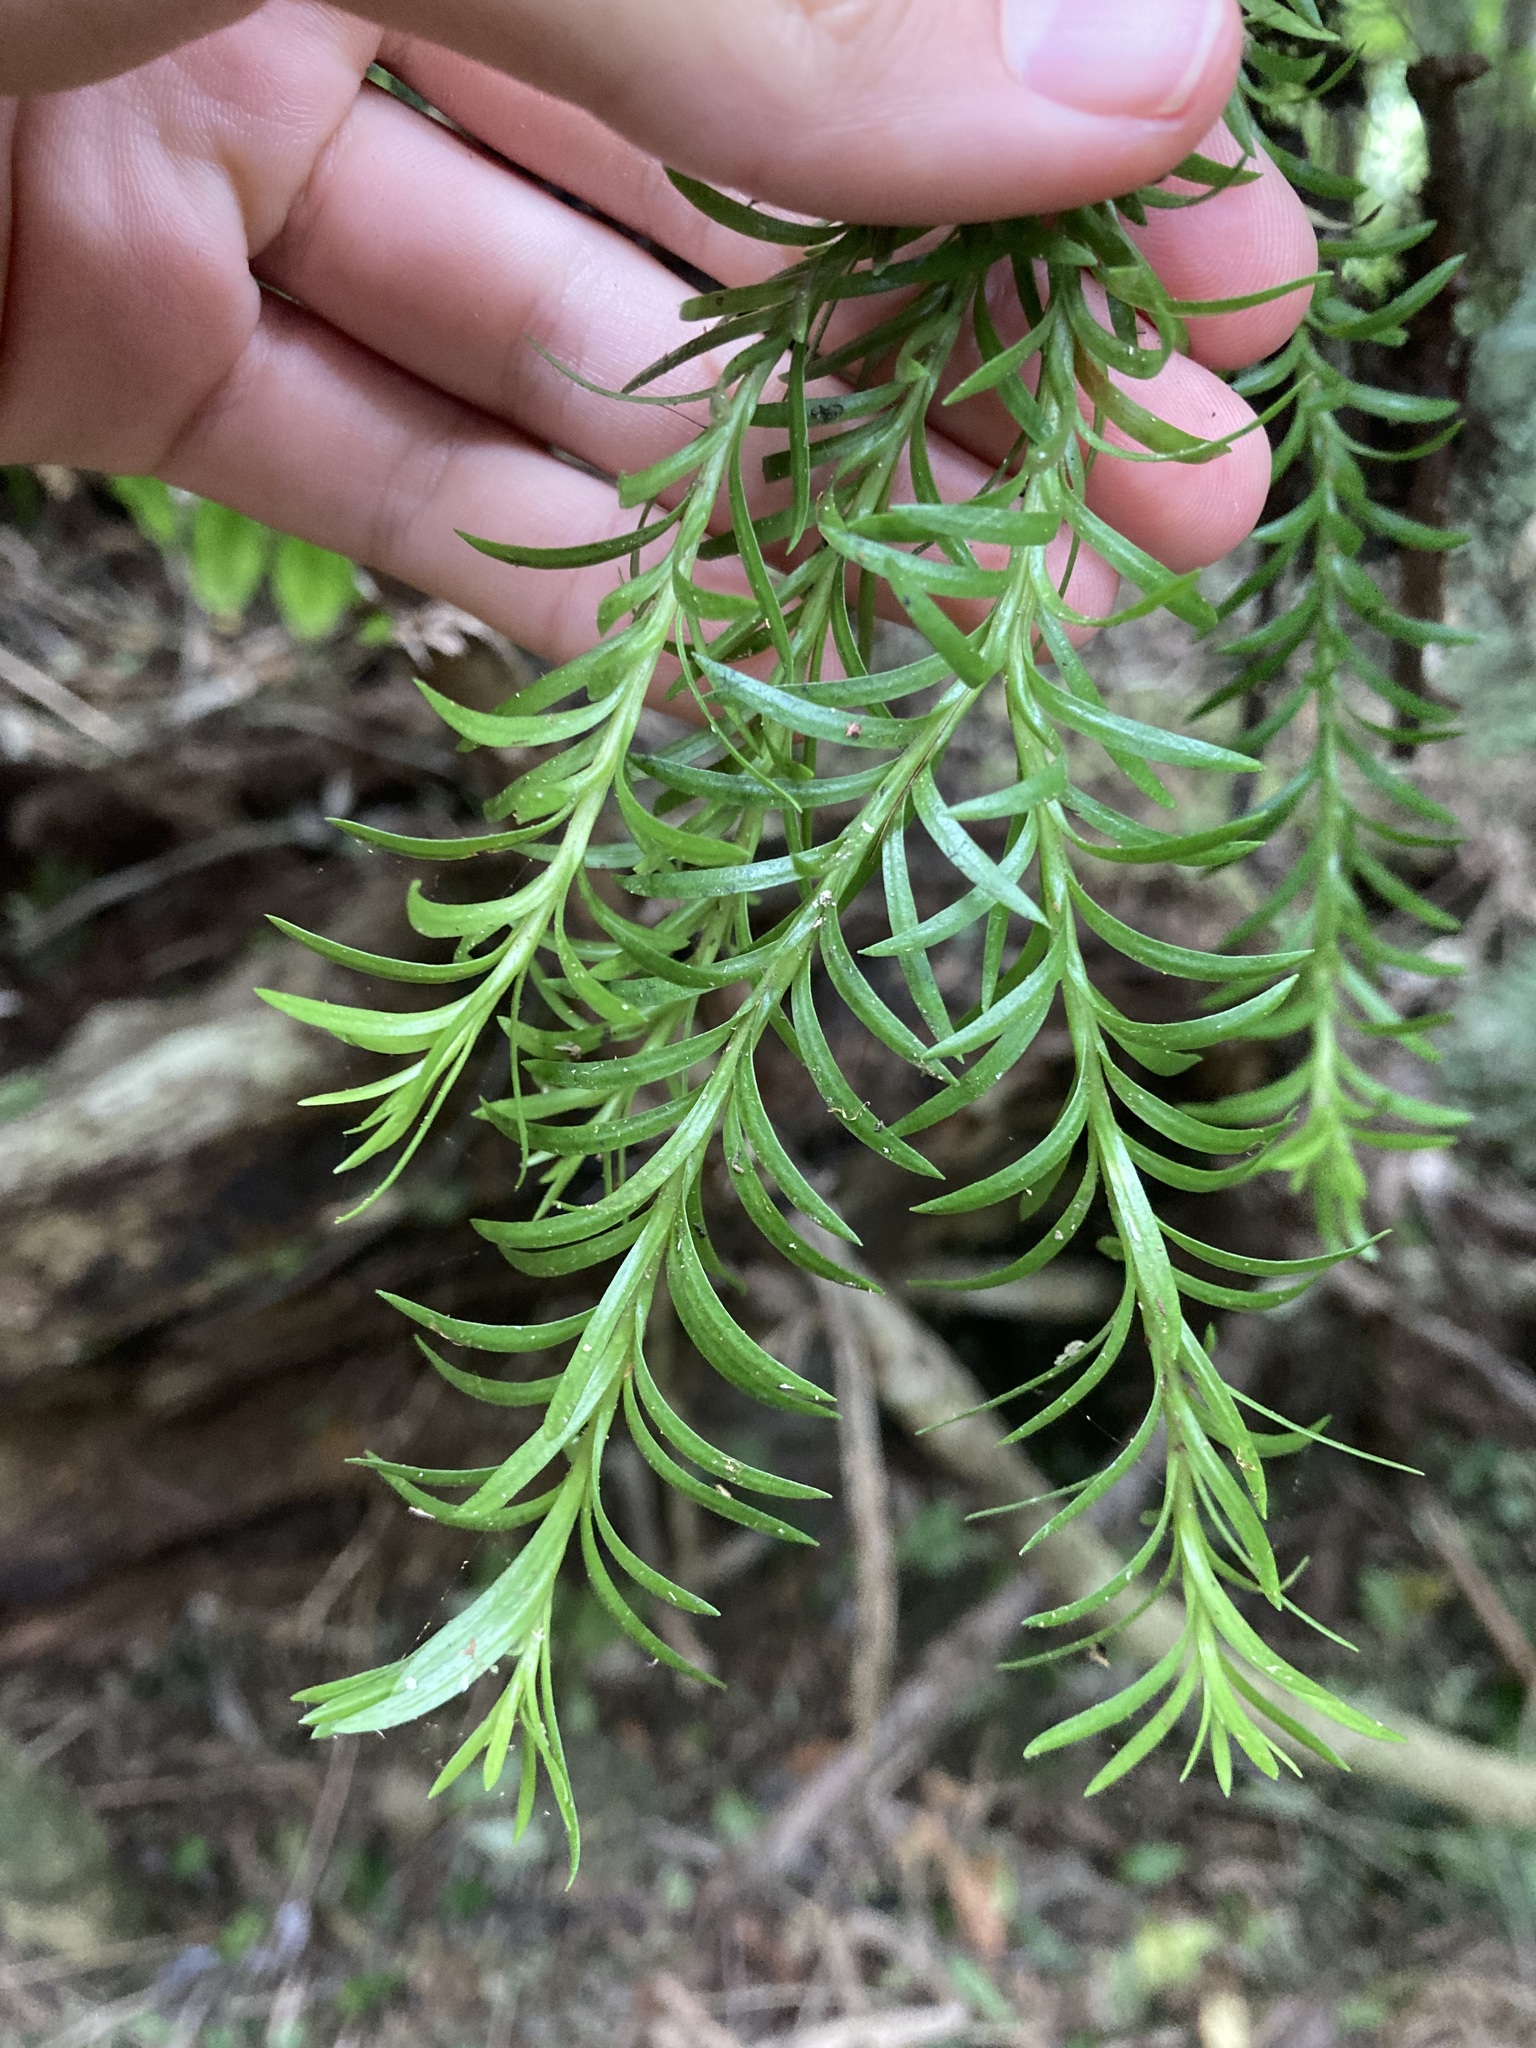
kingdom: Plantae
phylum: Tracheophyta
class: Lycopodiopsida
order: Lycopodiales
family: Lycopodiaceae
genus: Phlegmariurus
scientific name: Phlegmariurus
